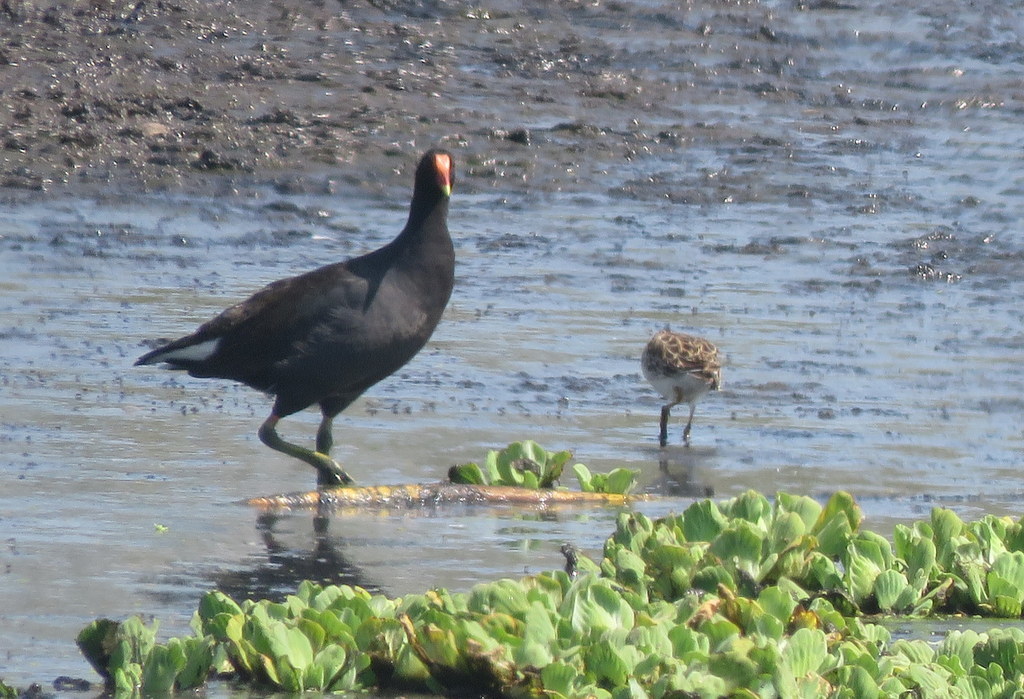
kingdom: Animalia
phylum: Chordata
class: Aves
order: Gruiformes
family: Rallidae
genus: Gallinula
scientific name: Gallinula chloropus
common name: Common moorhen
